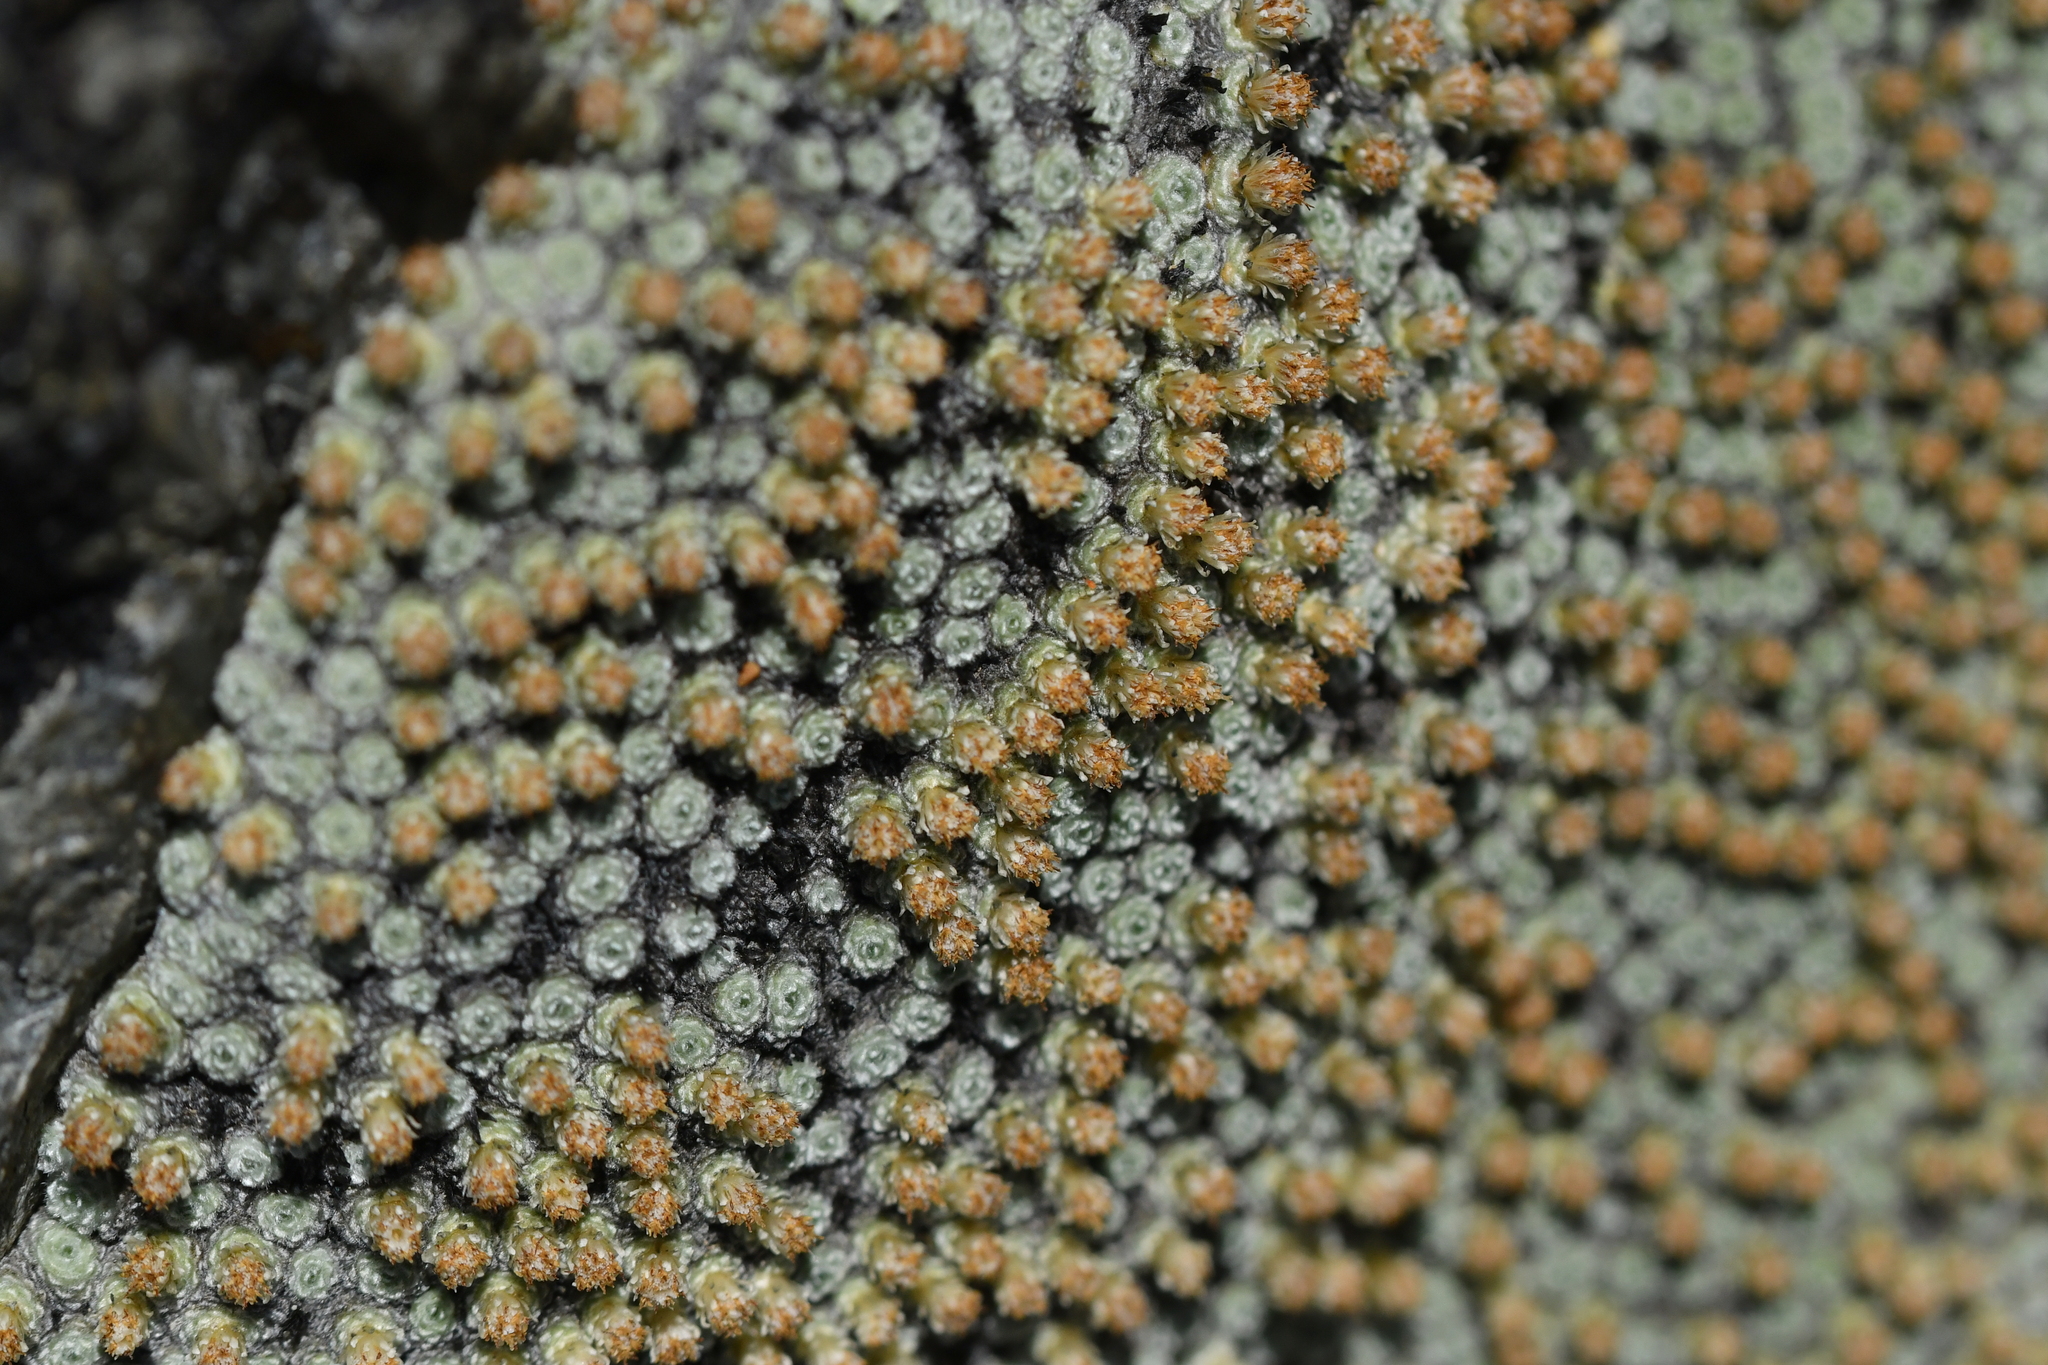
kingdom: Plantae
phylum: Tracheophyta
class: Magnoliopsida
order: Asterales
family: Asteraceae
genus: Raoulia
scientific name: Raoulia mammillaris
